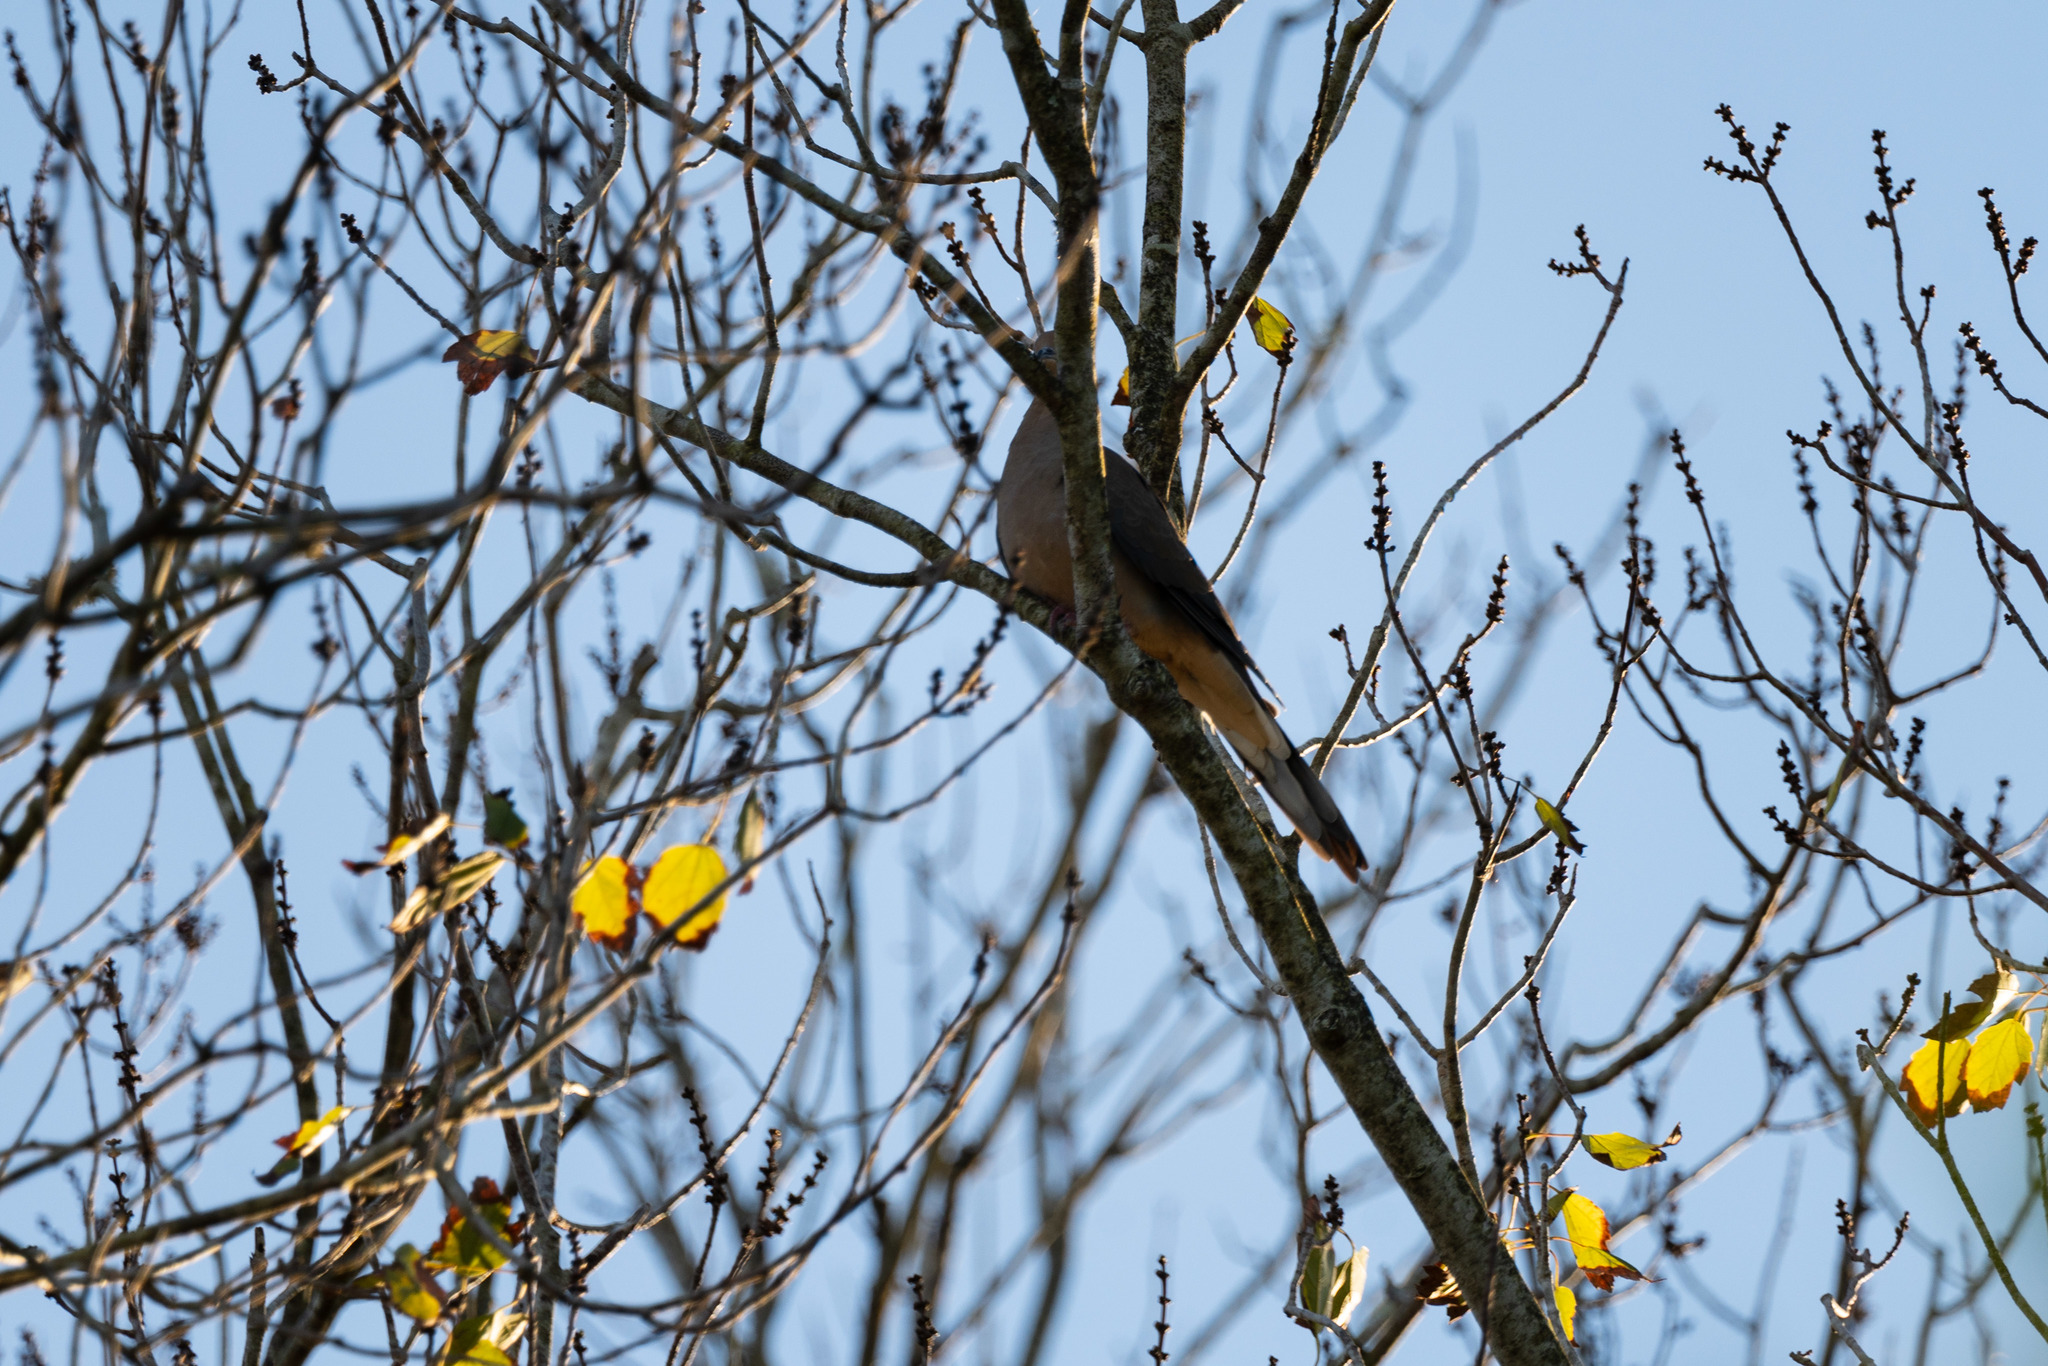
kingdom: Animalia
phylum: Chordata
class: Aves
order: Columbiformes
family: Columbidae
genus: Zenaida
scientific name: Zenaida macroura
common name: Mourning dove
